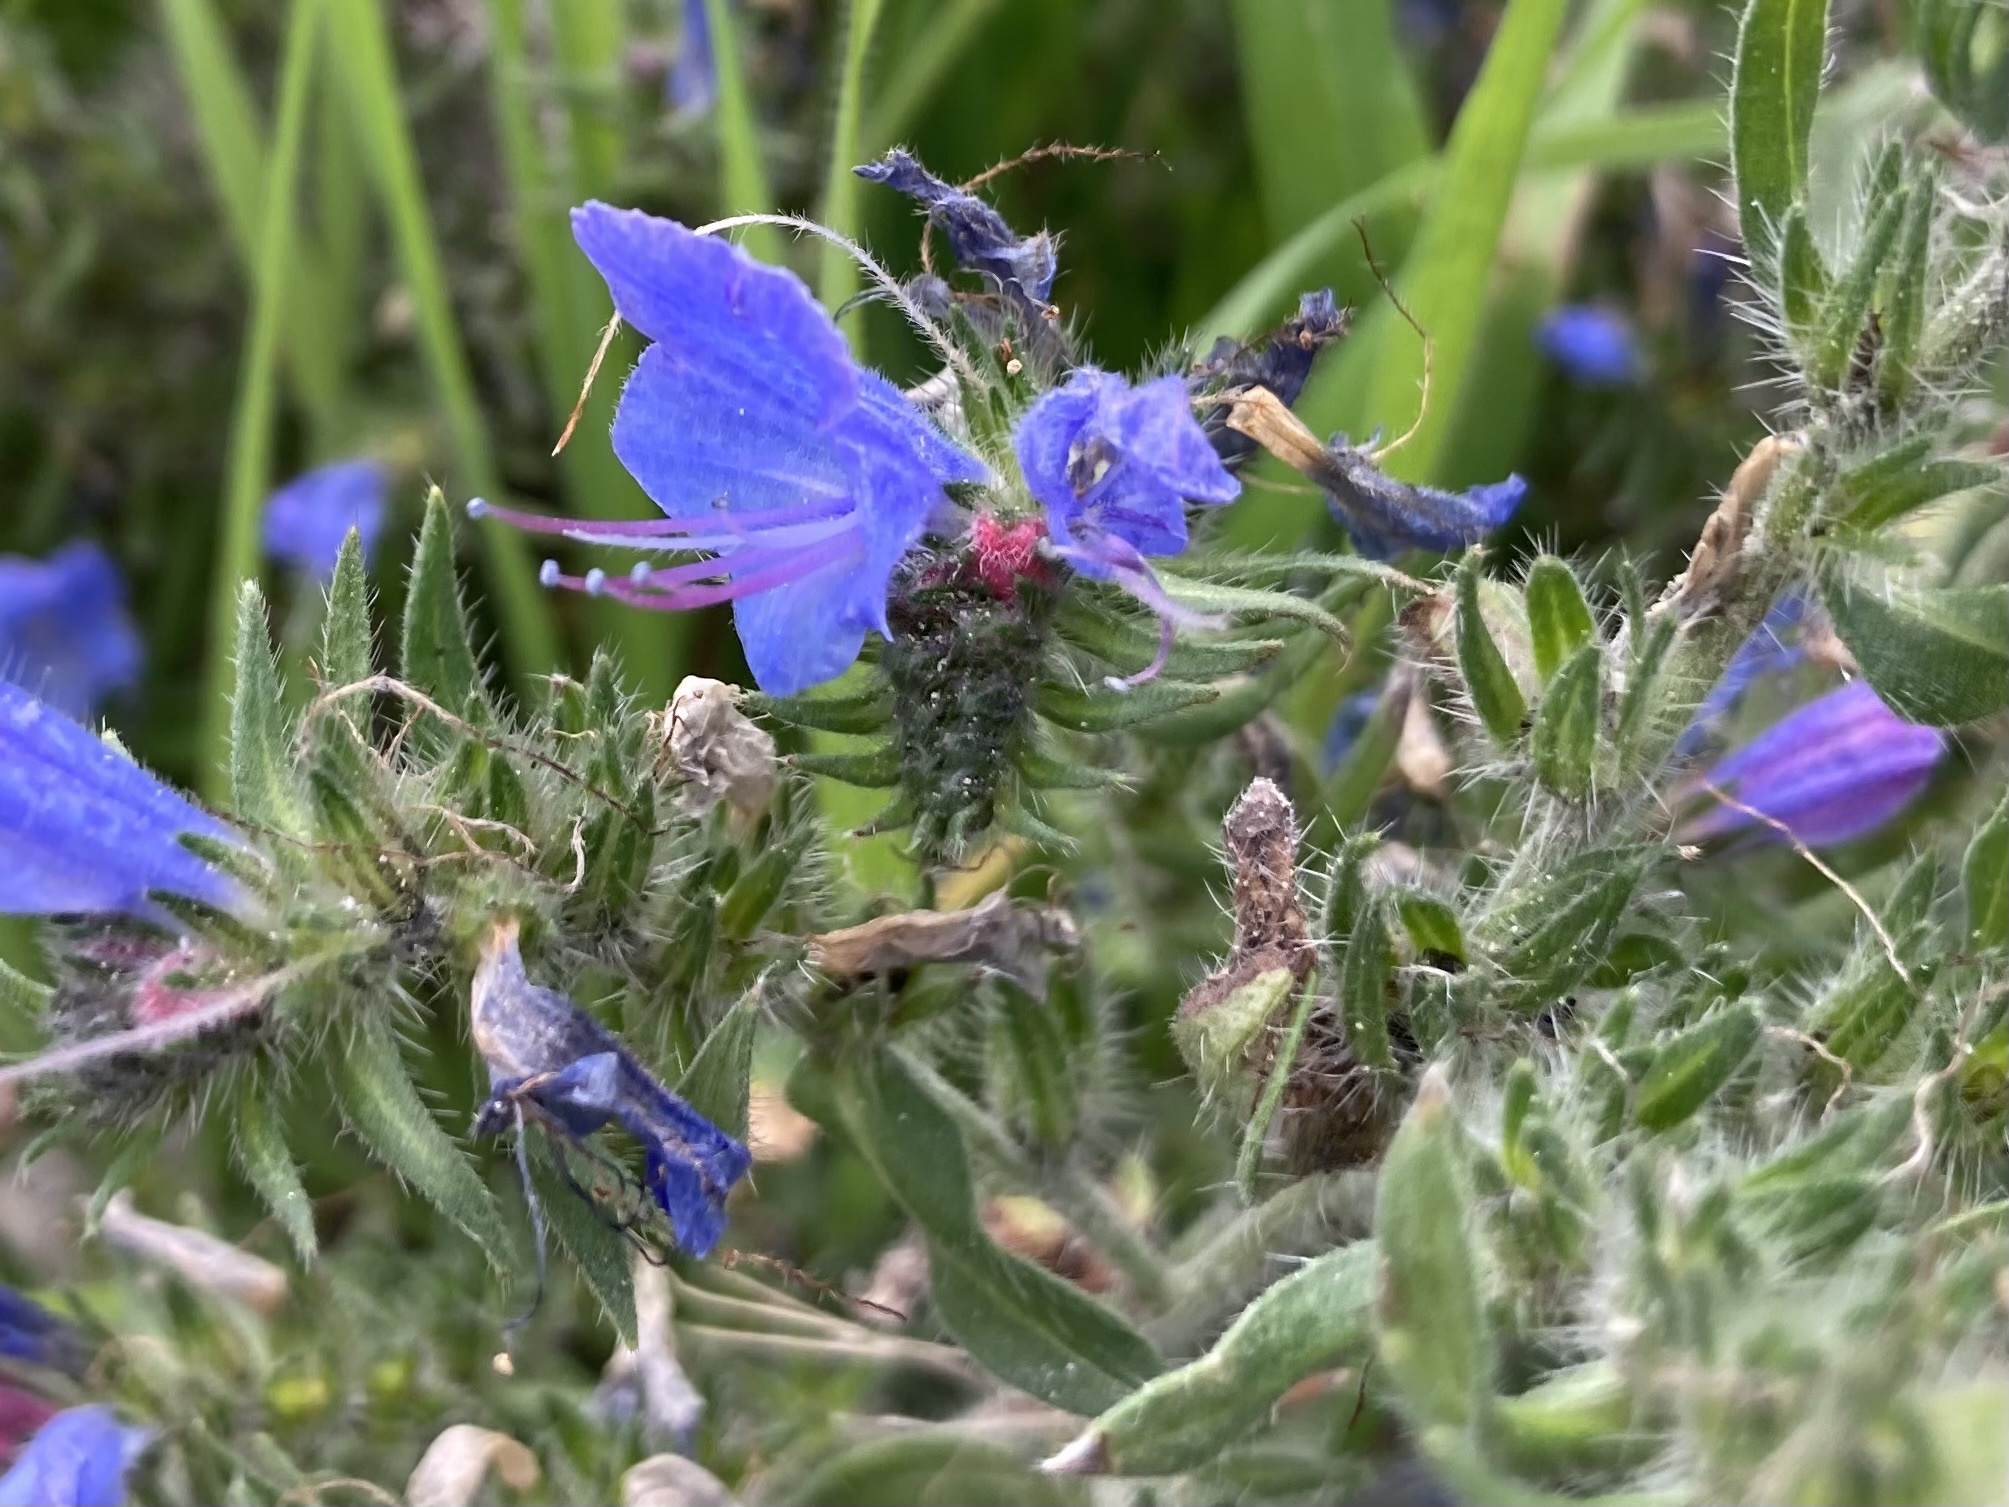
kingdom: Plantae
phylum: Tracheophyta
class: Magnoliopsida
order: Boraginales
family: Boraginaceae
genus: Echium
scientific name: Echium vulgare
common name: Common viper's bugloss
